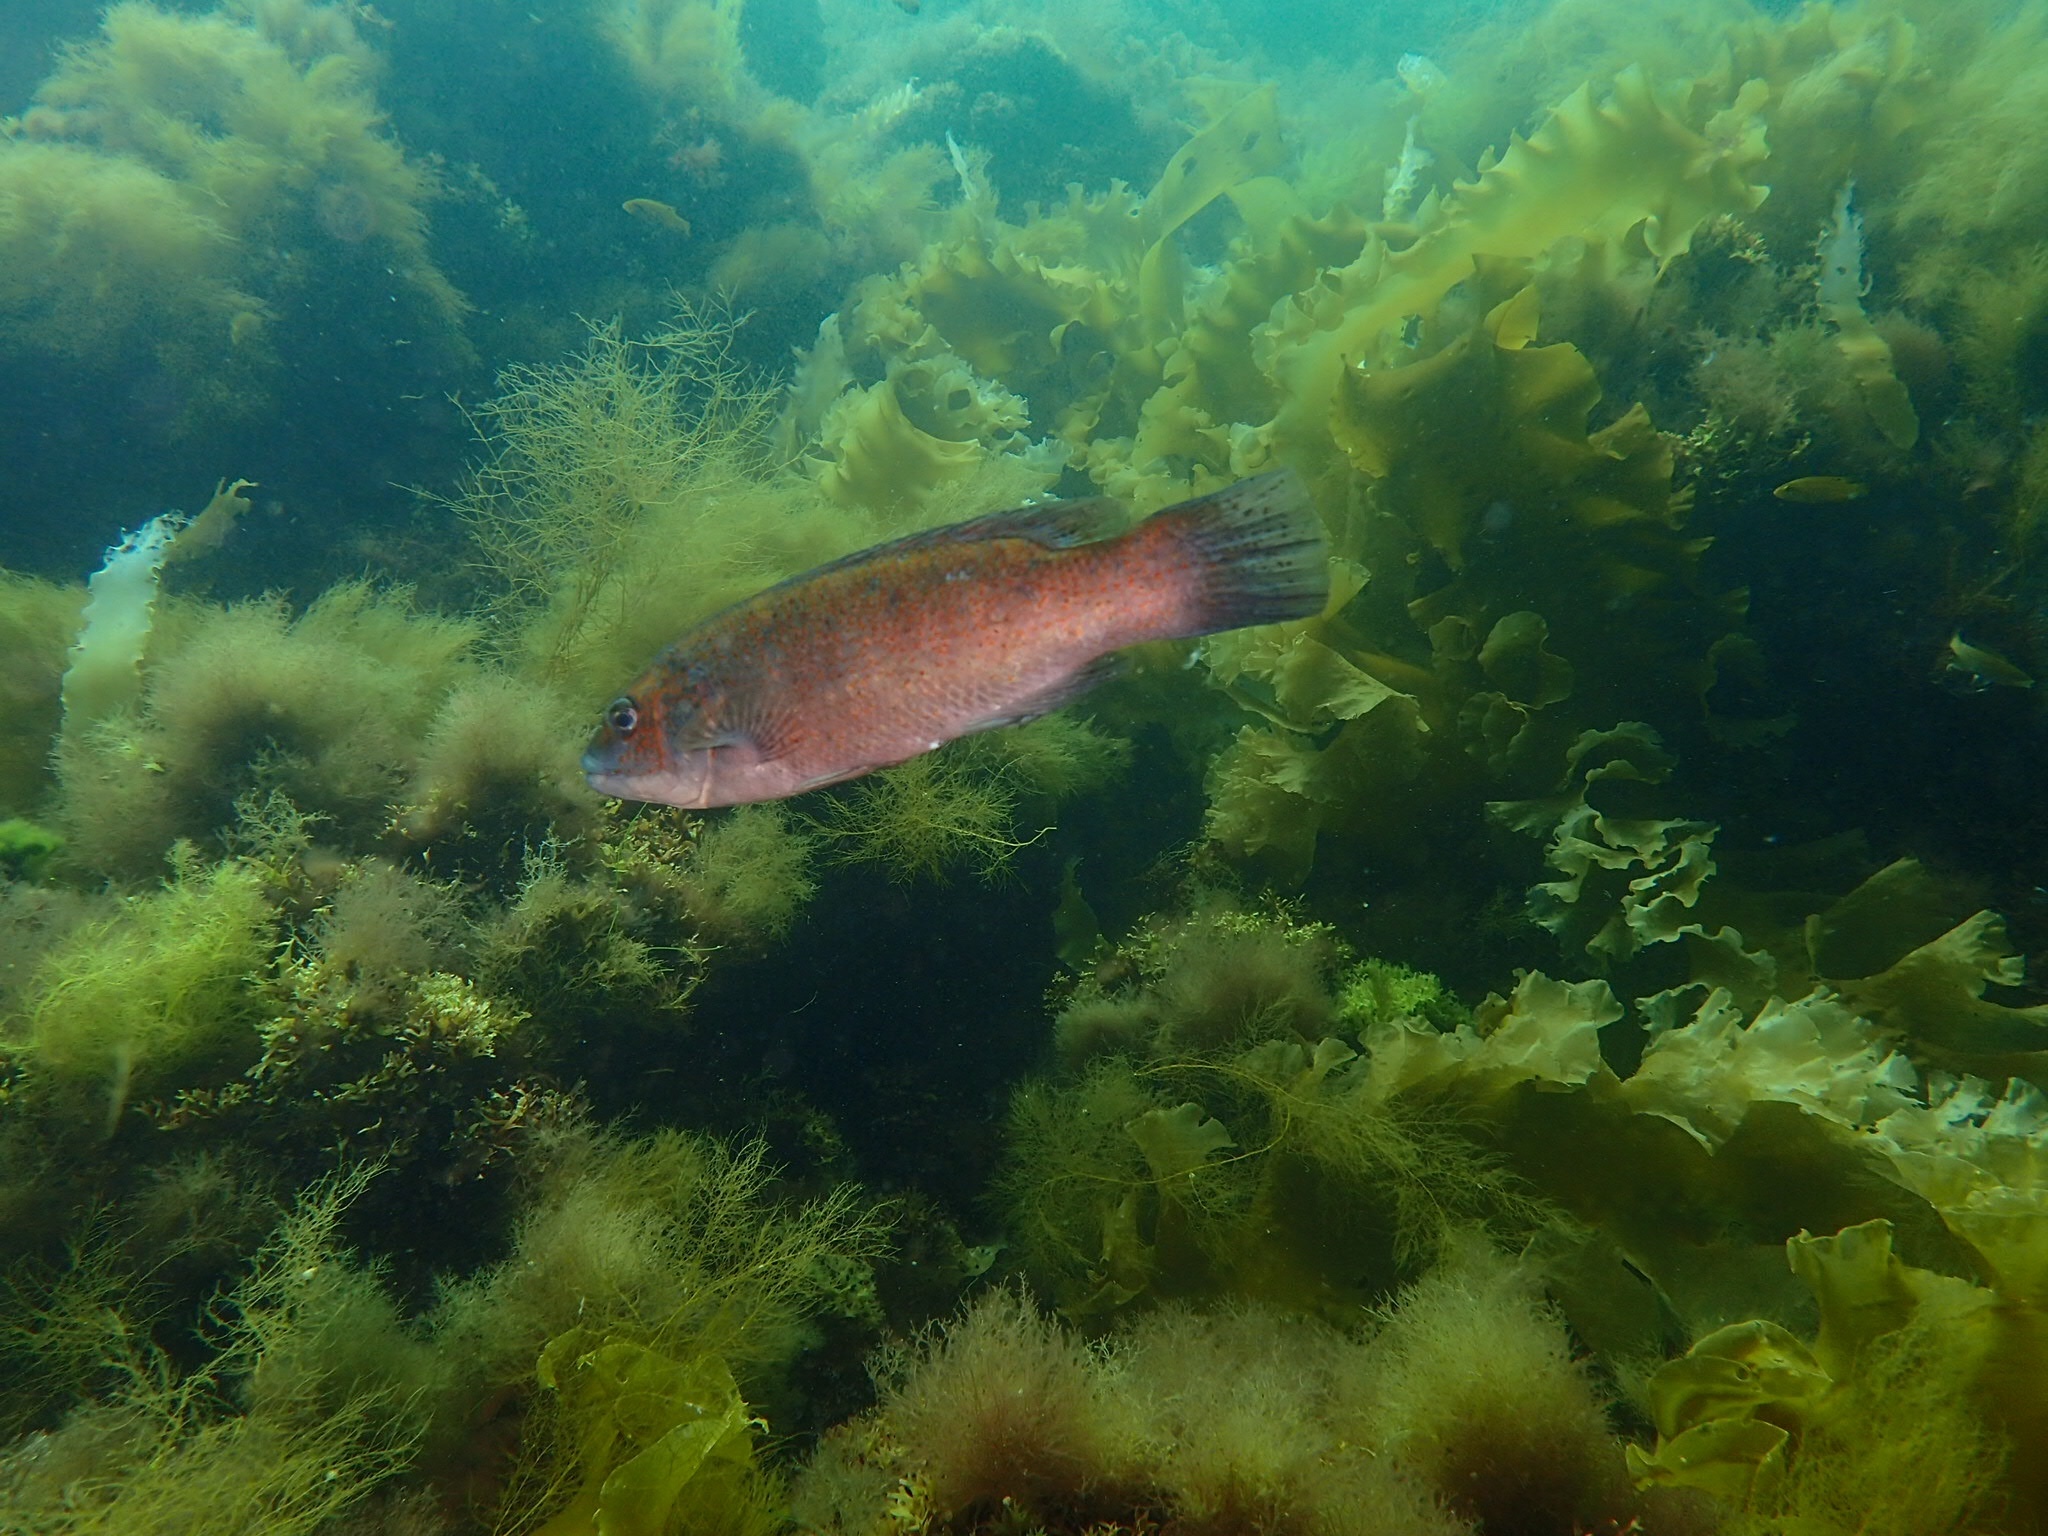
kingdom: Animalia
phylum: Chordata
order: Perciformes
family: Labridae
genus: Tautogolabrus
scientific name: Tautogolabrus adspersus
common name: Cunner
